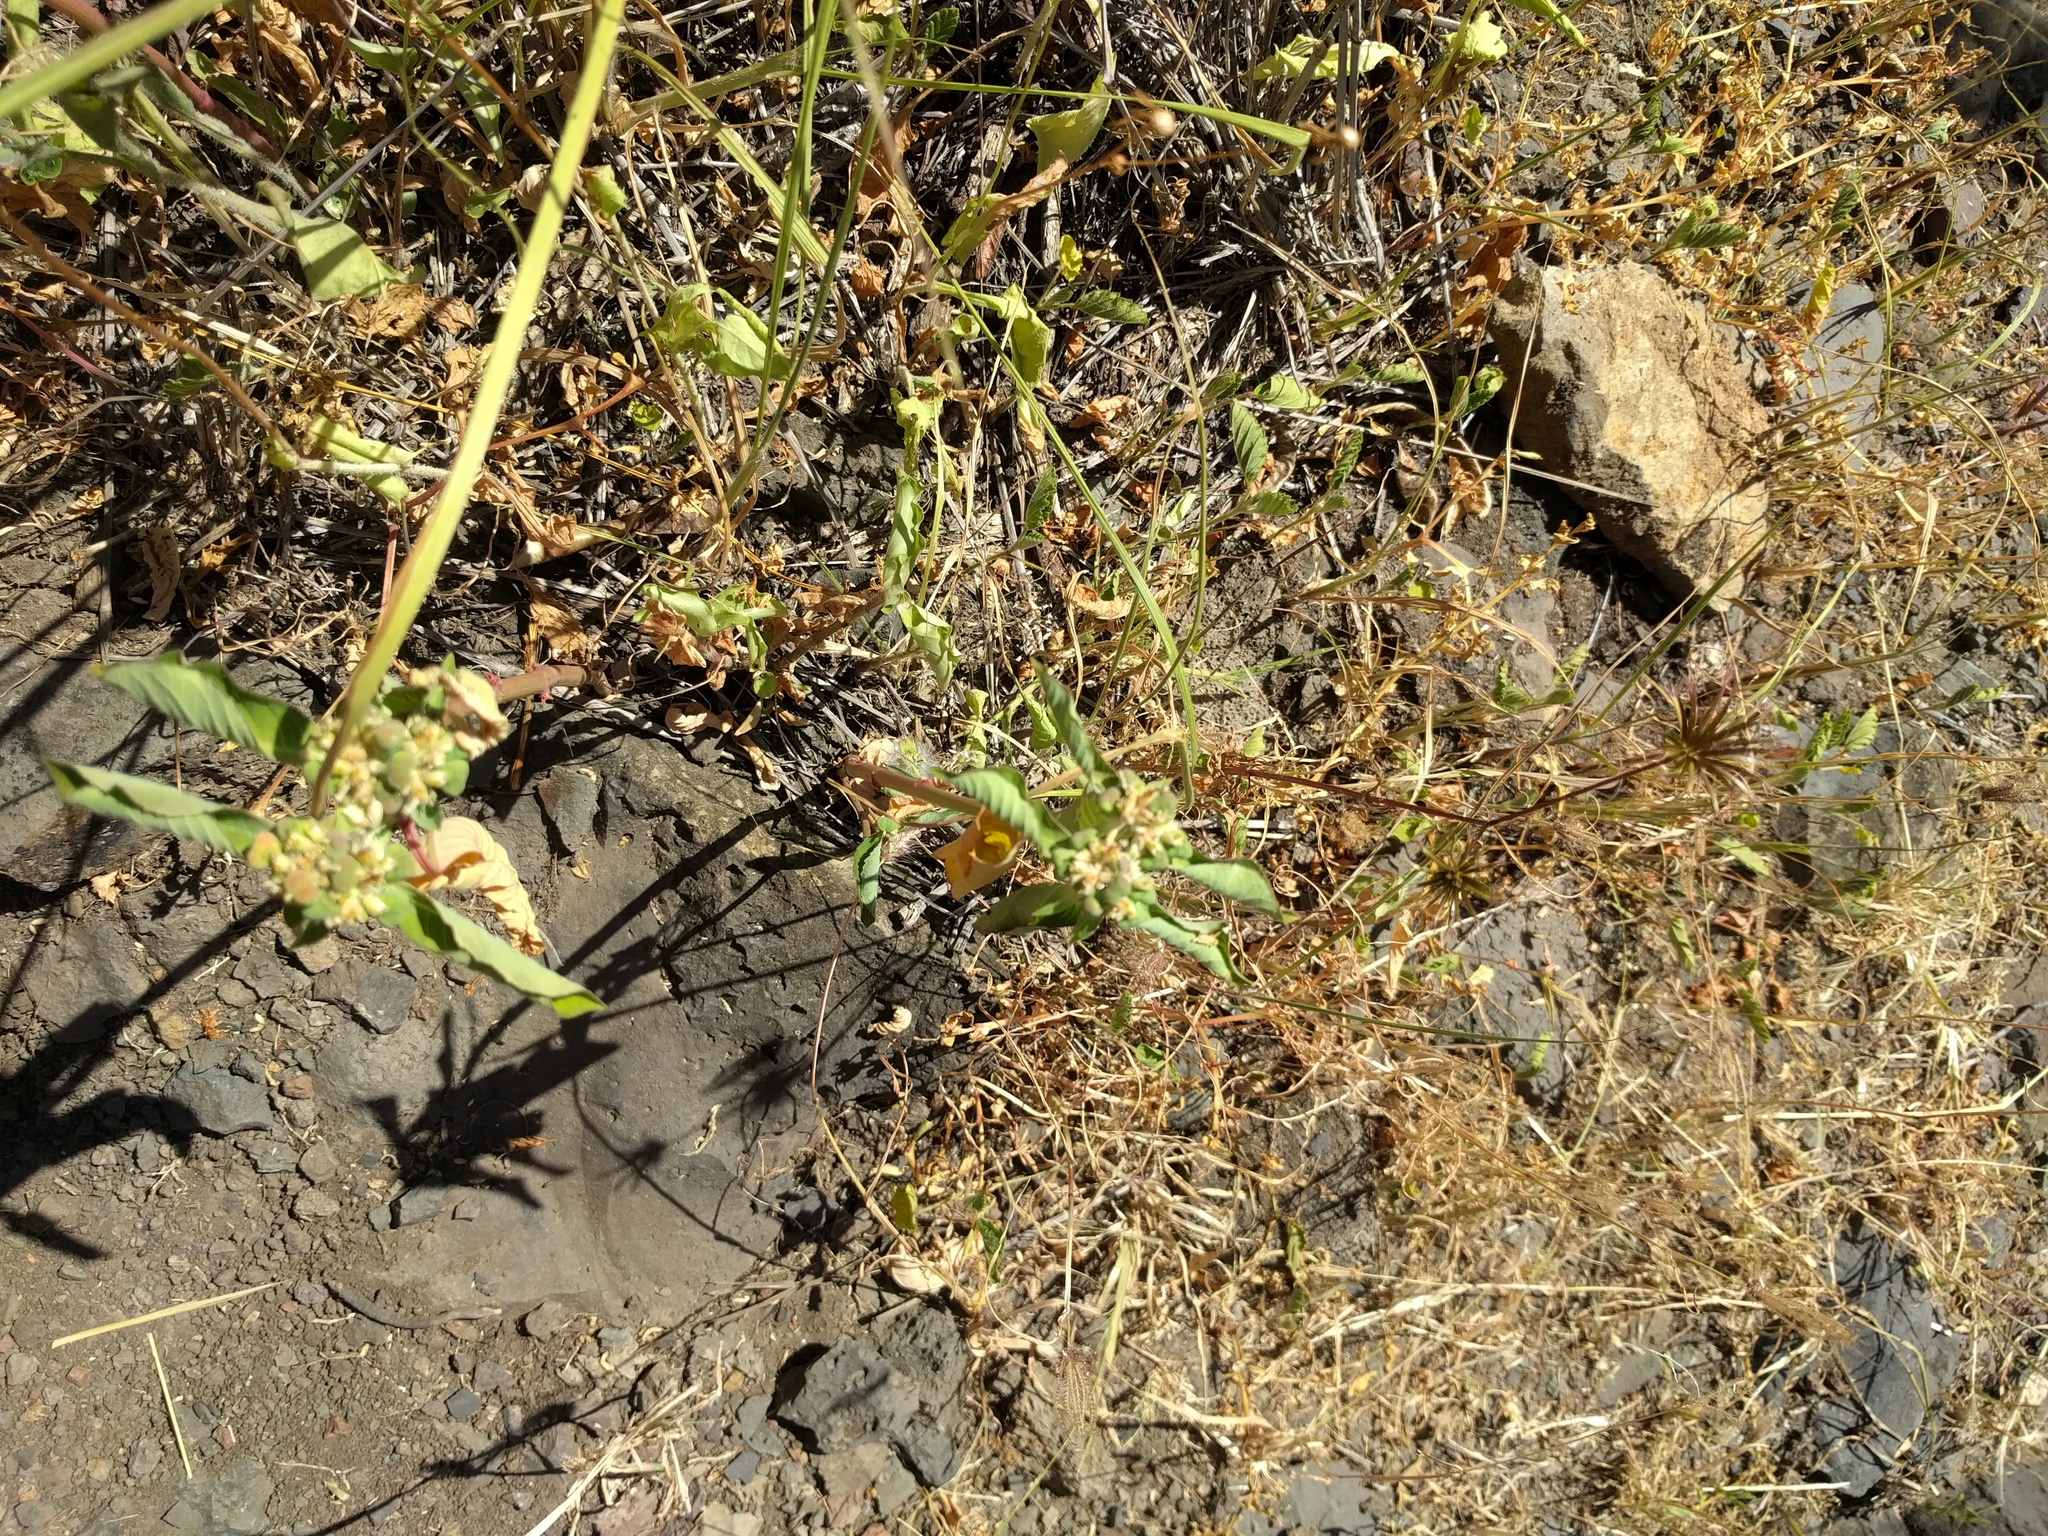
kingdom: Plantae
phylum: Tracheophyta
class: Magnoliopsida
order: Malpighiales
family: Euphorbiaceae
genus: Euphorbia
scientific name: Euphorbia heterophylla
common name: Mexican fireplant
